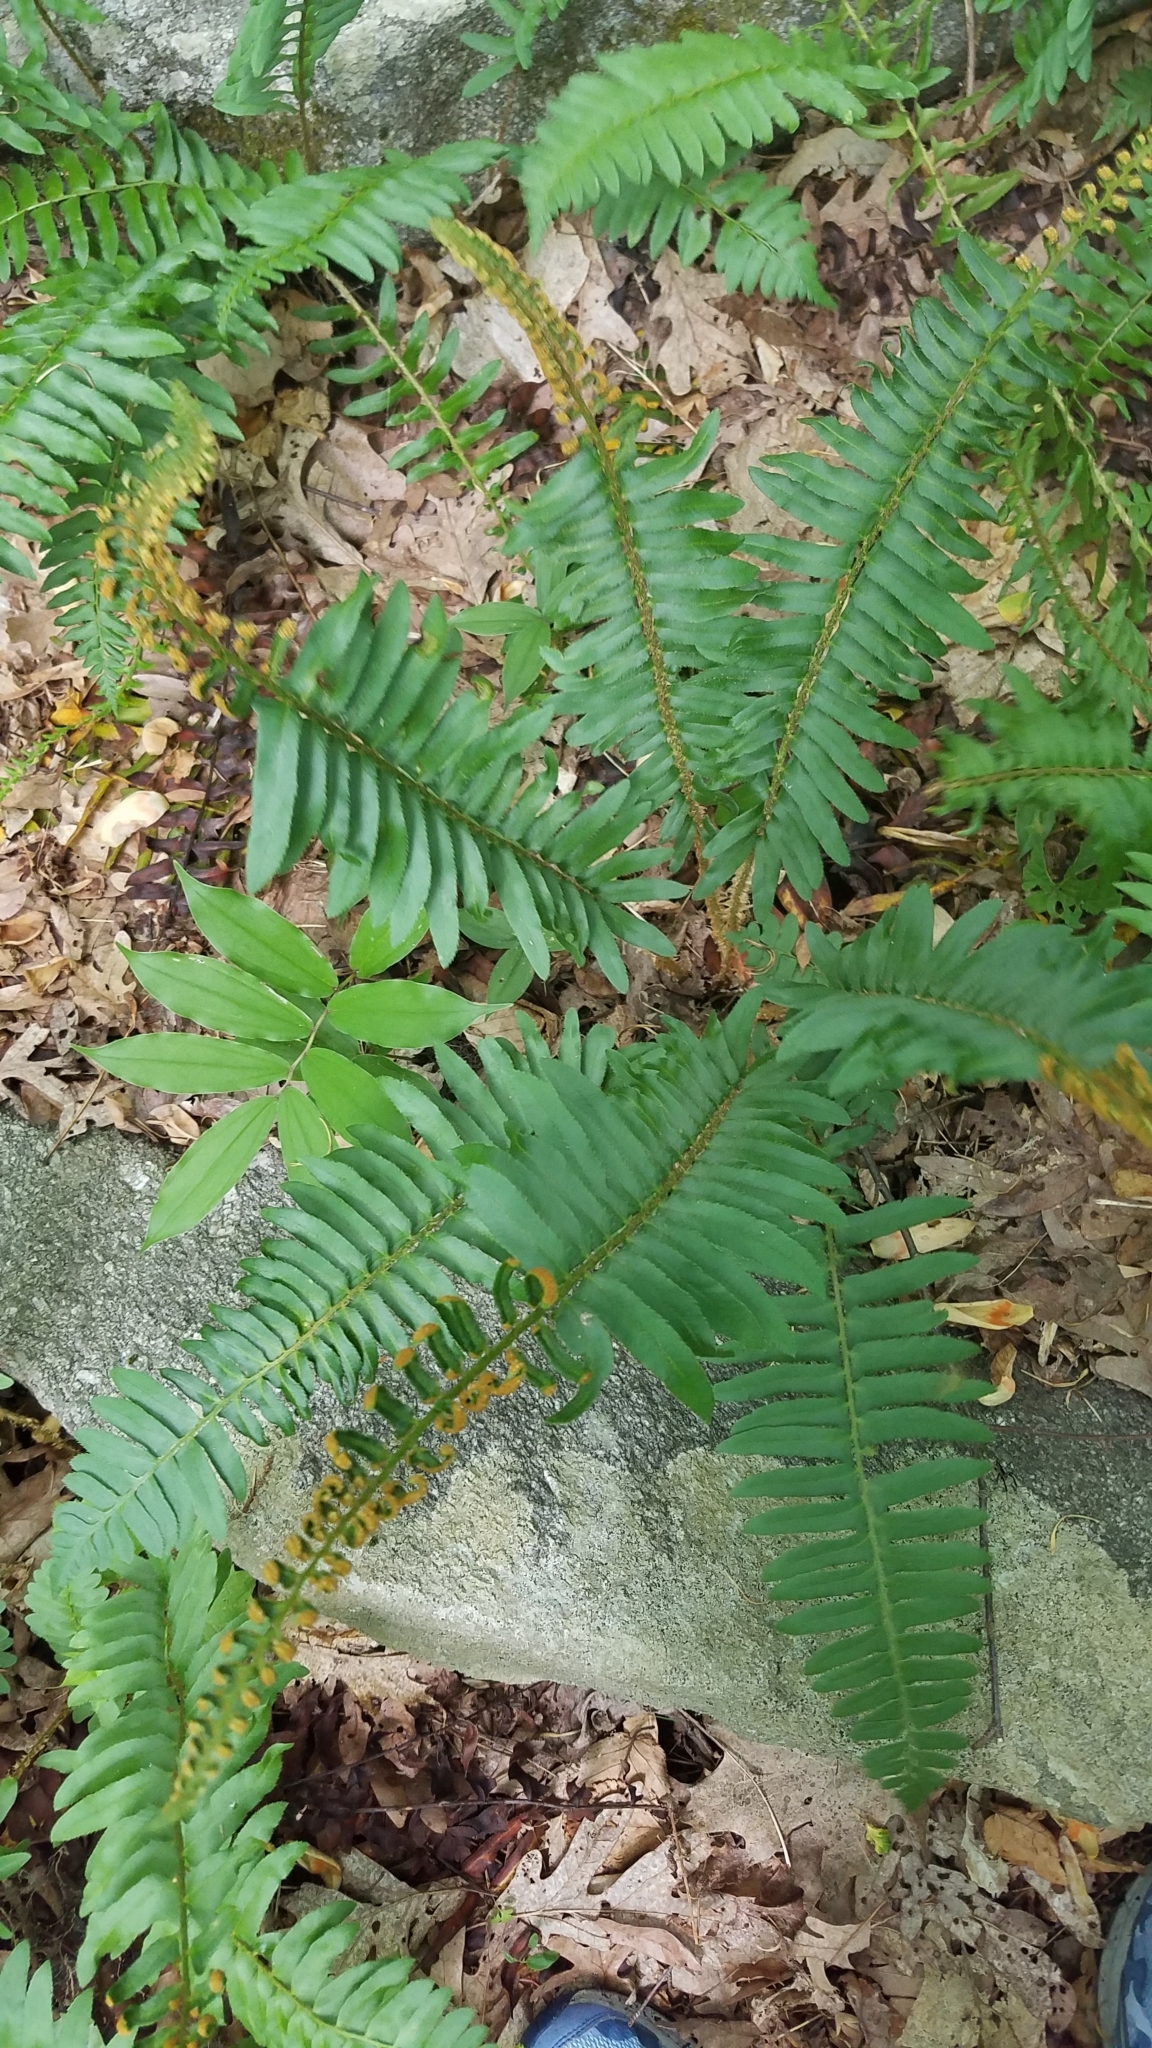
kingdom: Plantae
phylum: Tracheophyta
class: Polypodiopsida
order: Polypodiales
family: Dryopteridaceae
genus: Polystichum
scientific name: Polystichum acrostichoides
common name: Christmas fern
